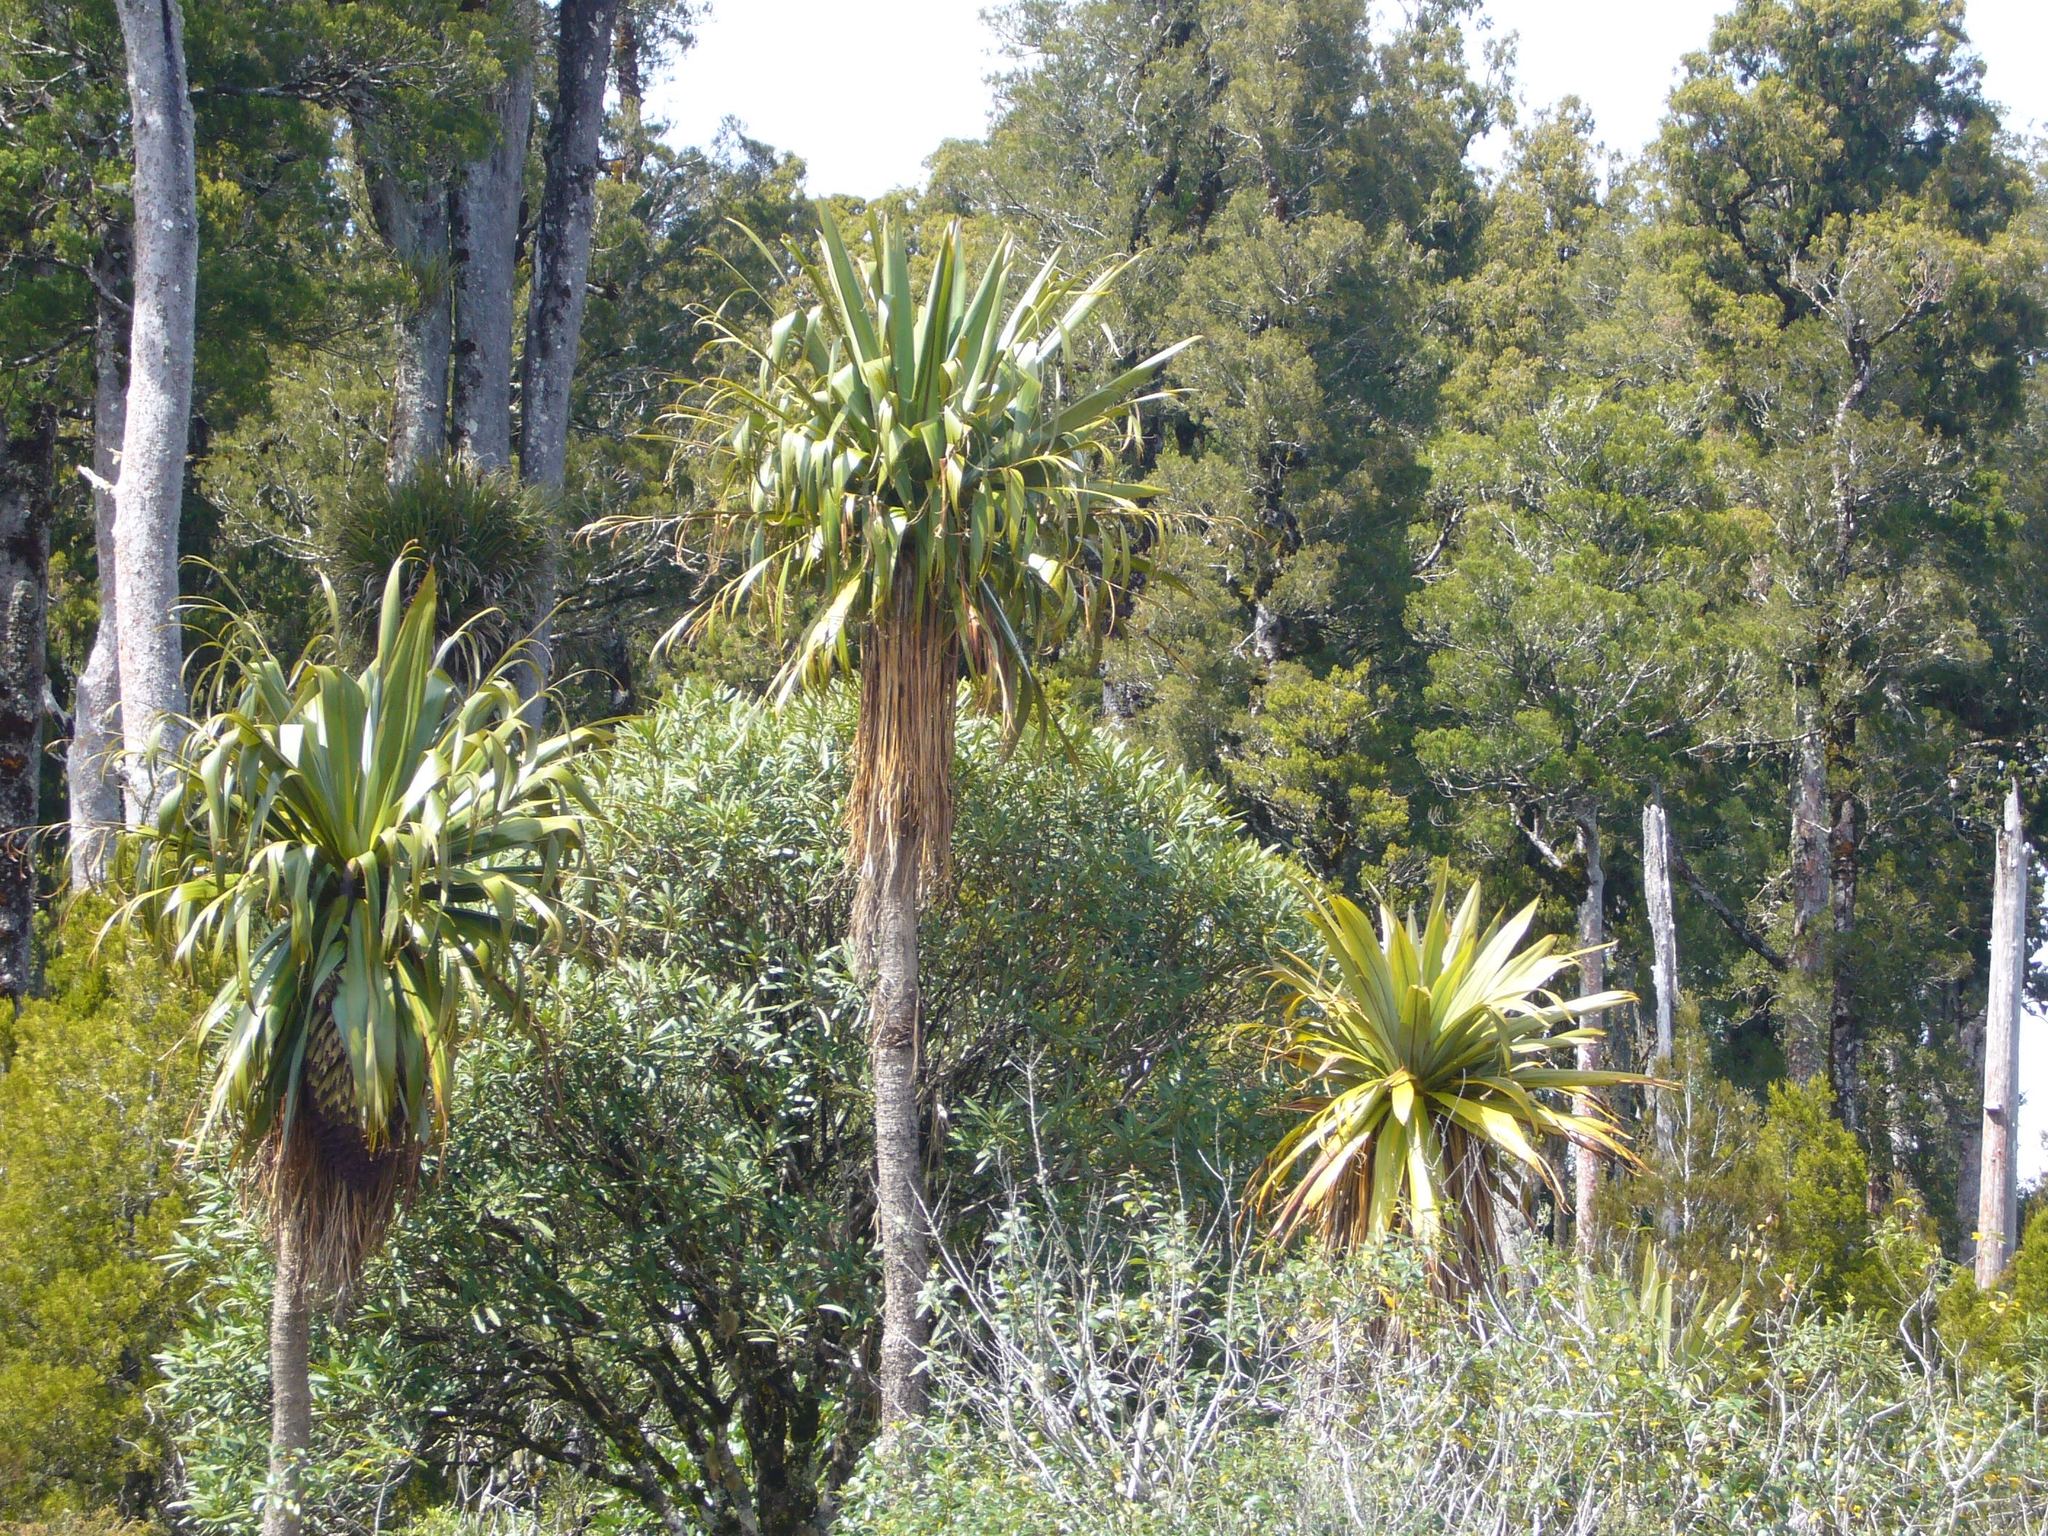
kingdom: Plantae
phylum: Tracheophyta
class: Liliopsida
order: Asparagales
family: Asparagaceae
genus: Cordyline
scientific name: Cordyline indivisa
